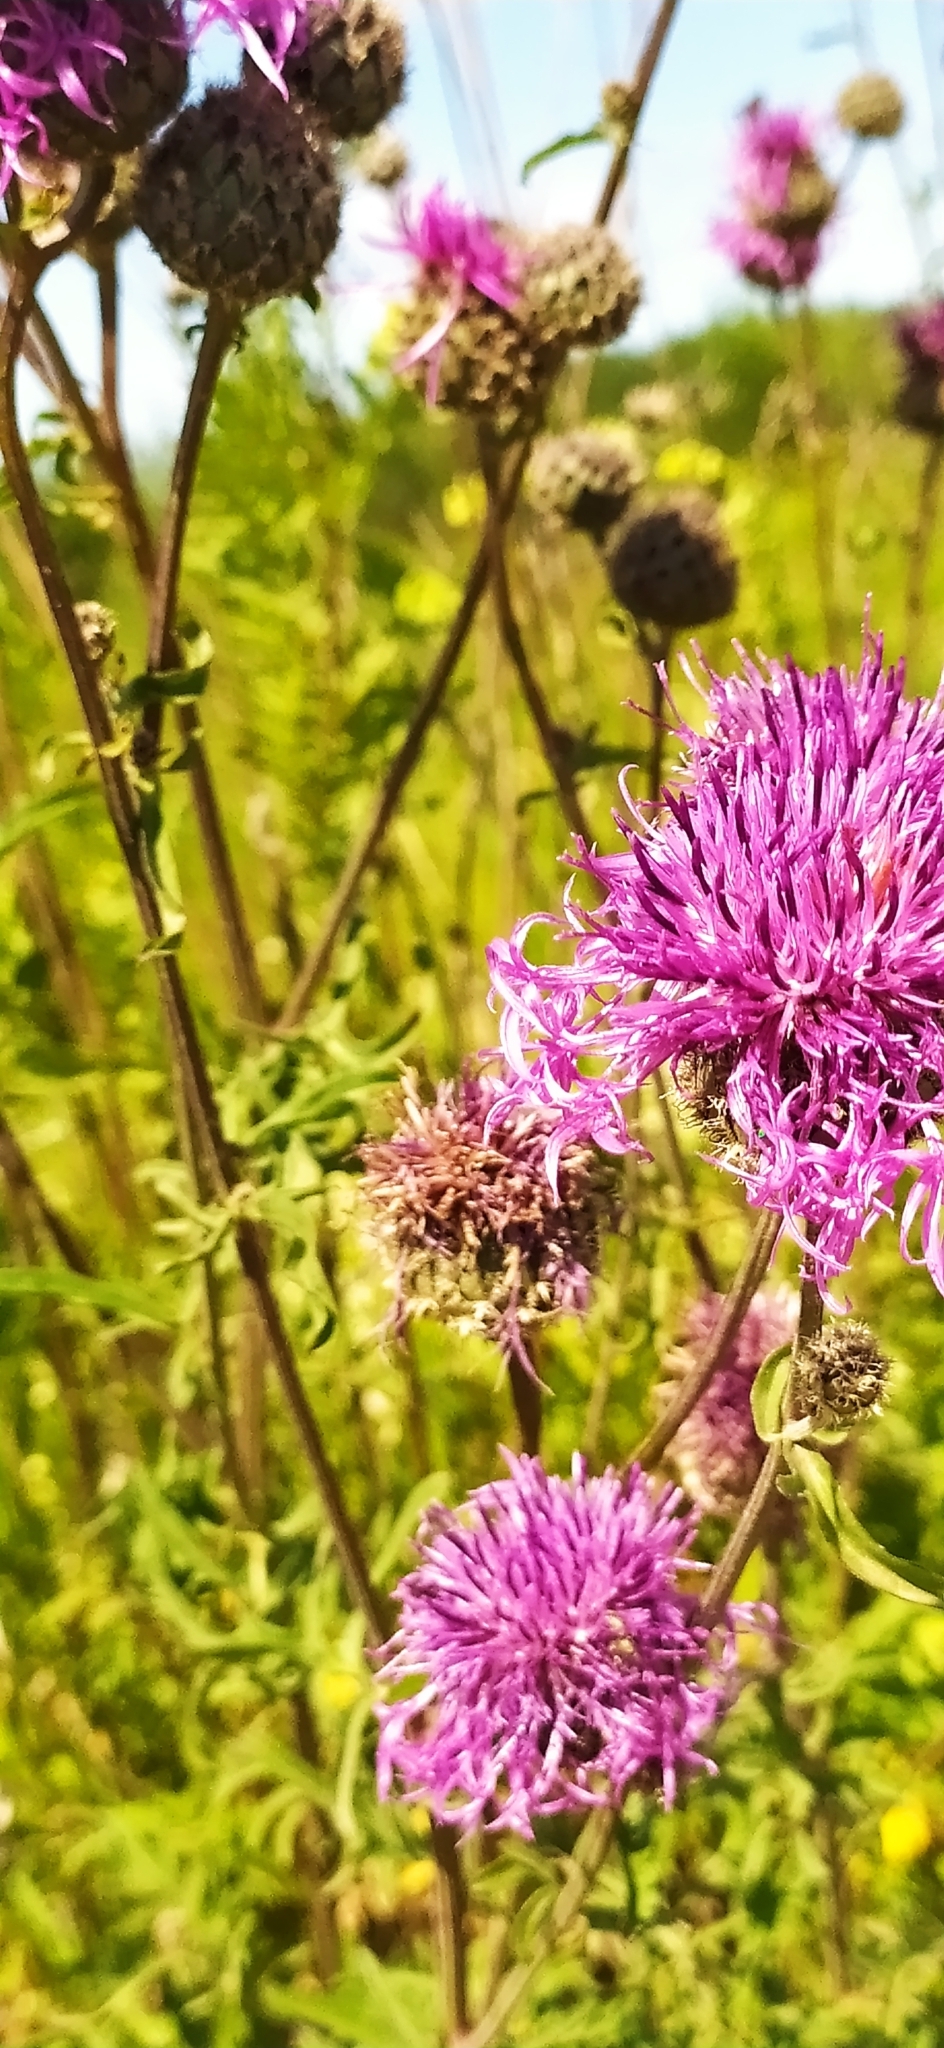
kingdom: Plantae
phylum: Tracheophyta
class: Magnoliopsida
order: Asterales
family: Asteraceae
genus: Centaurea
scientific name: Centaurea scabiosa
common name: Greater knapweed
